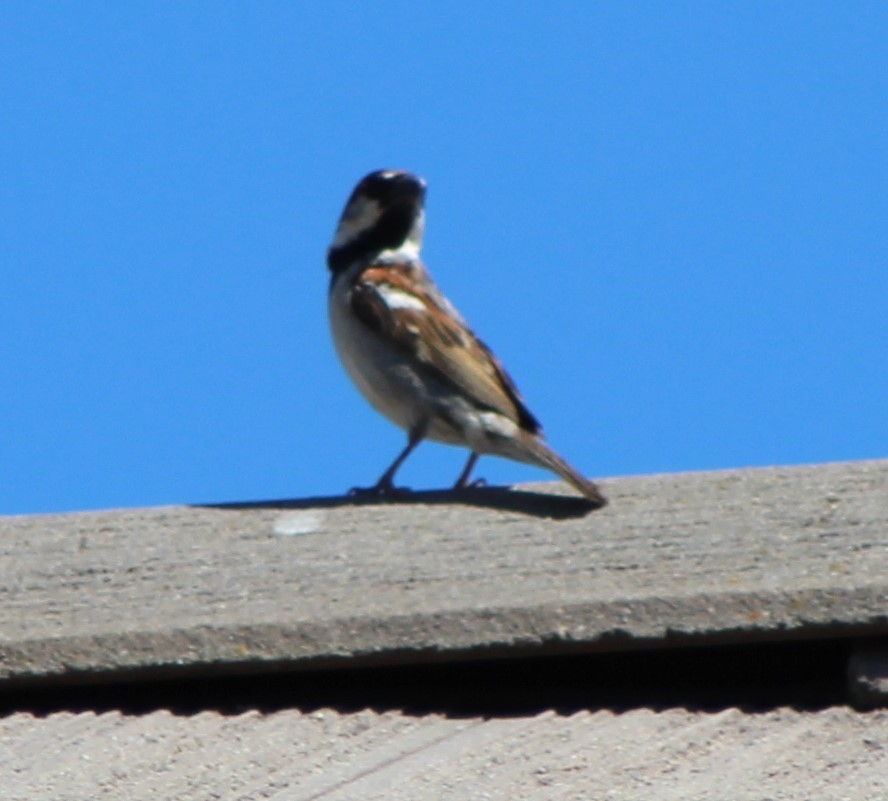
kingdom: Animalia
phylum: Chordata
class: Aves
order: Passeriformes
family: Passeridae
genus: Passer
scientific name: Passer domesticus
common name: House sparrow
